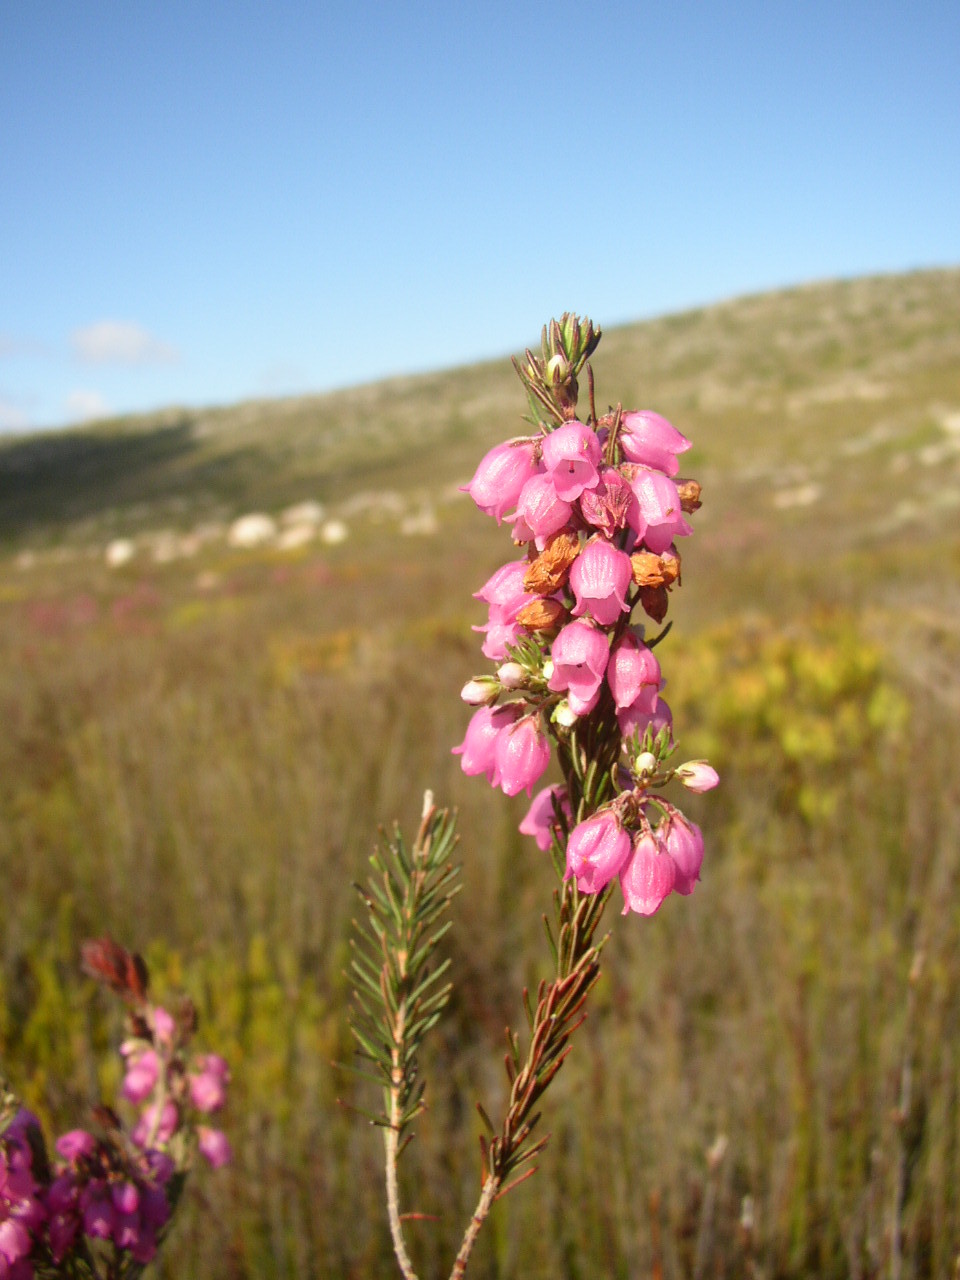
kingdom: Plantae
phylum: Tracheophyta
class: Magnoliopsida
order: Ericales
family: Ericaceae
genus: Erica
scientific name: Erica viscaria
